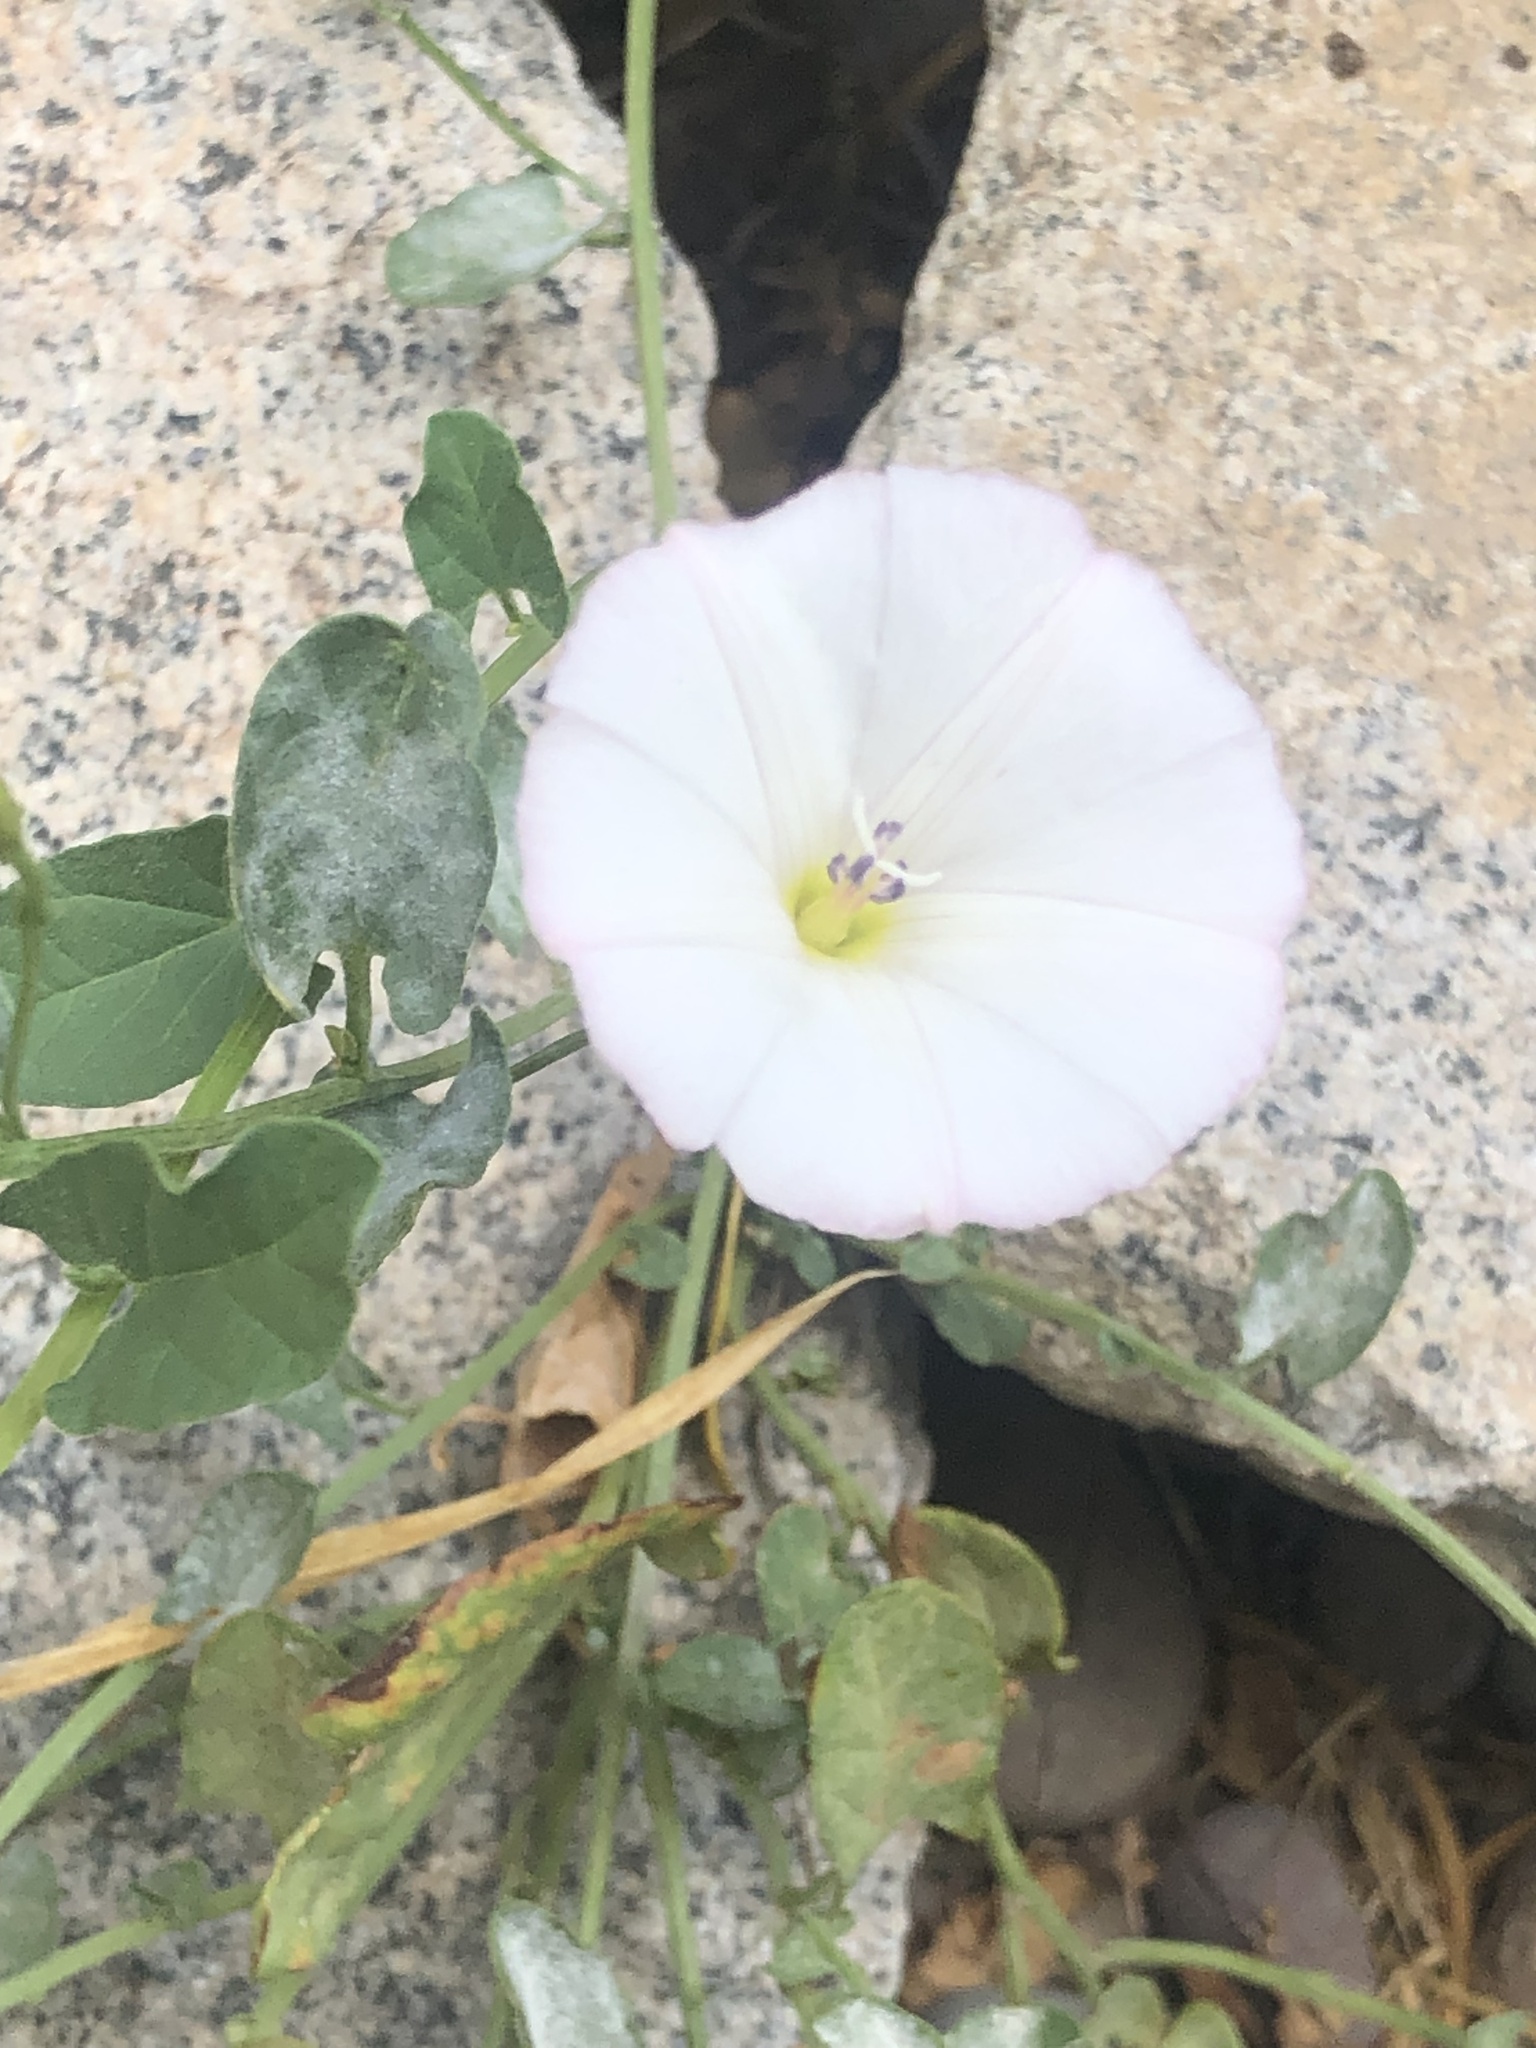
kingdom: Plantae
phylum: Tracheophyta
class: Magnoliopsida
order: Solanales
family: Convolvulaceae
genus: Convolvulus
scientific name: Convolvulus arvensis
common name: Field bindweed
